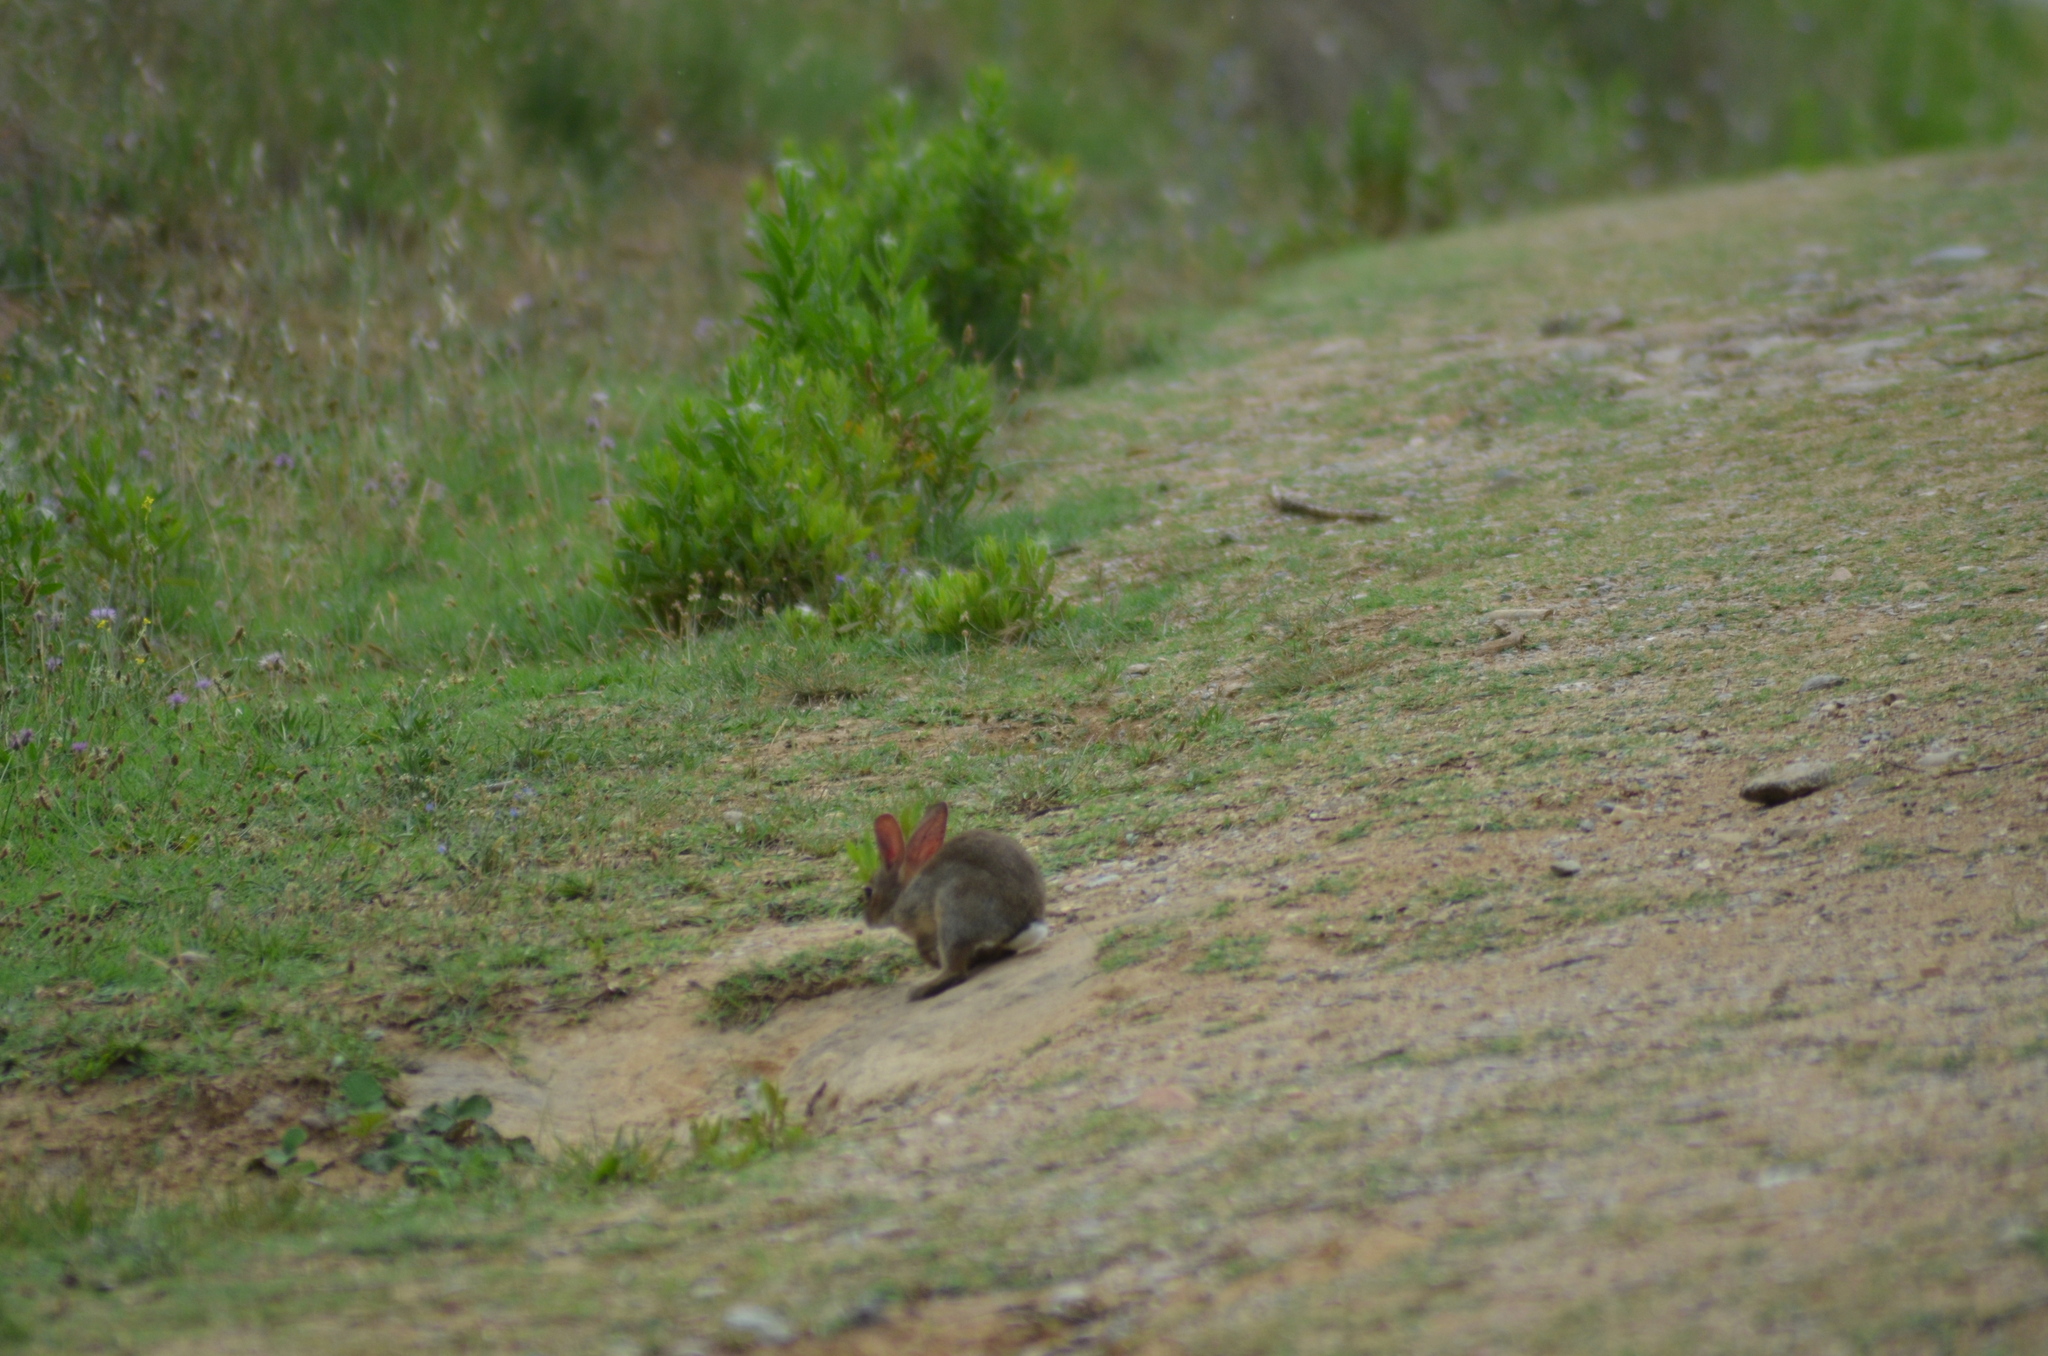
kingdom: Animalia
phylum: Chordata
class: Mammalia
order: Lagomorpha
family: Leporidae
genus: Oryctolagus
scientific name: Oryctolagus cuniculus
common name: European rabbit
